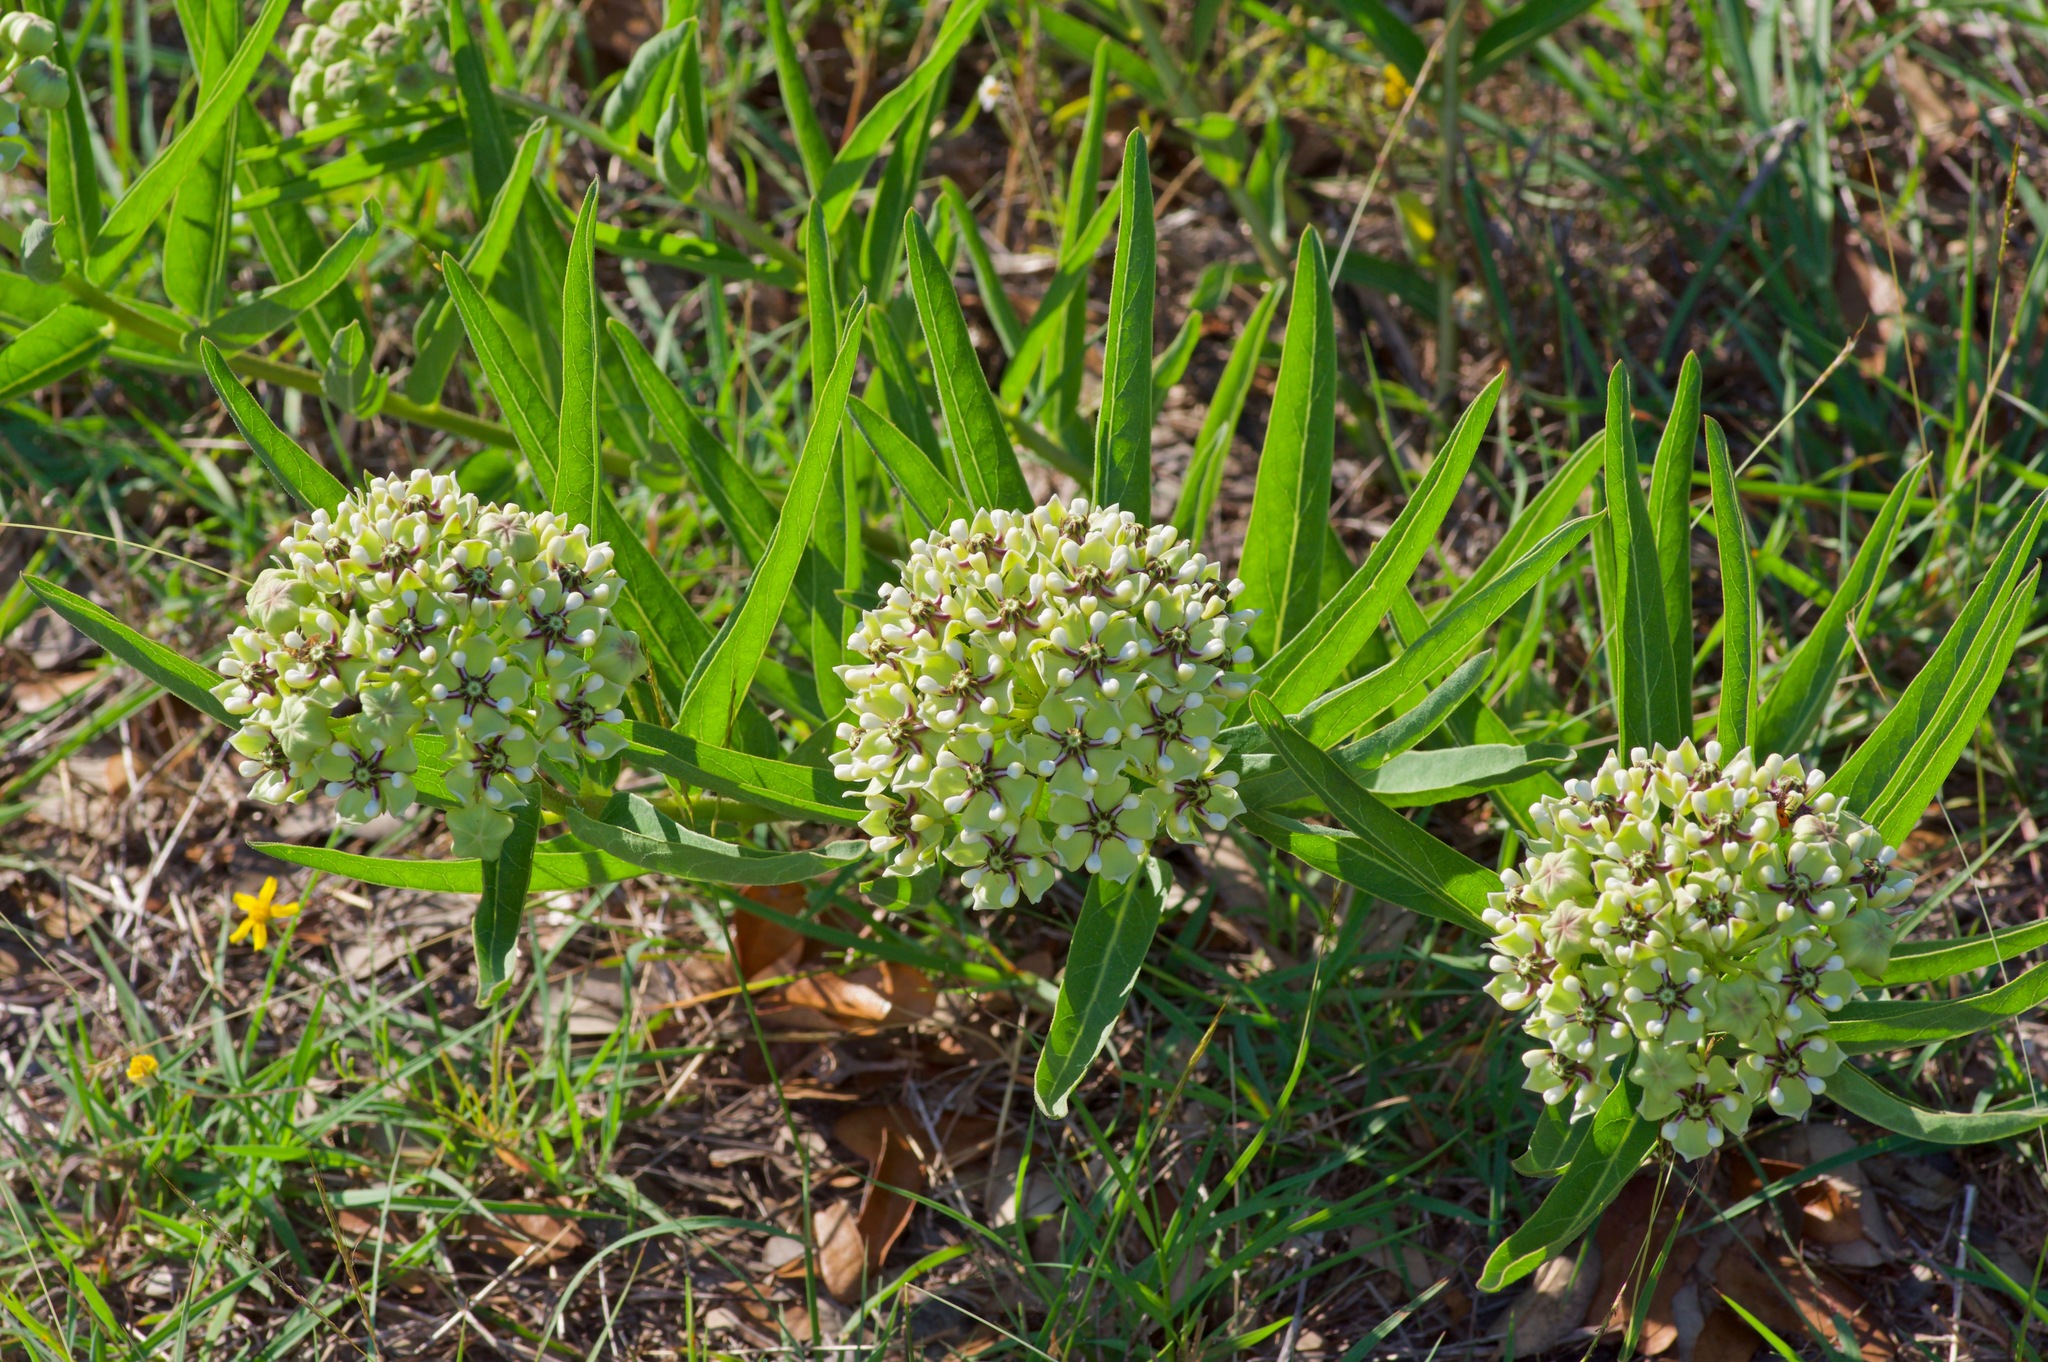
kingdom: Plantae
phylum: Tracheophyta
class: Magnoliopsida
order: Gentianales
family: Apocynaceae
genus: Asclepias
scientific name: Asclepias asperula
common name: Antelope horns
